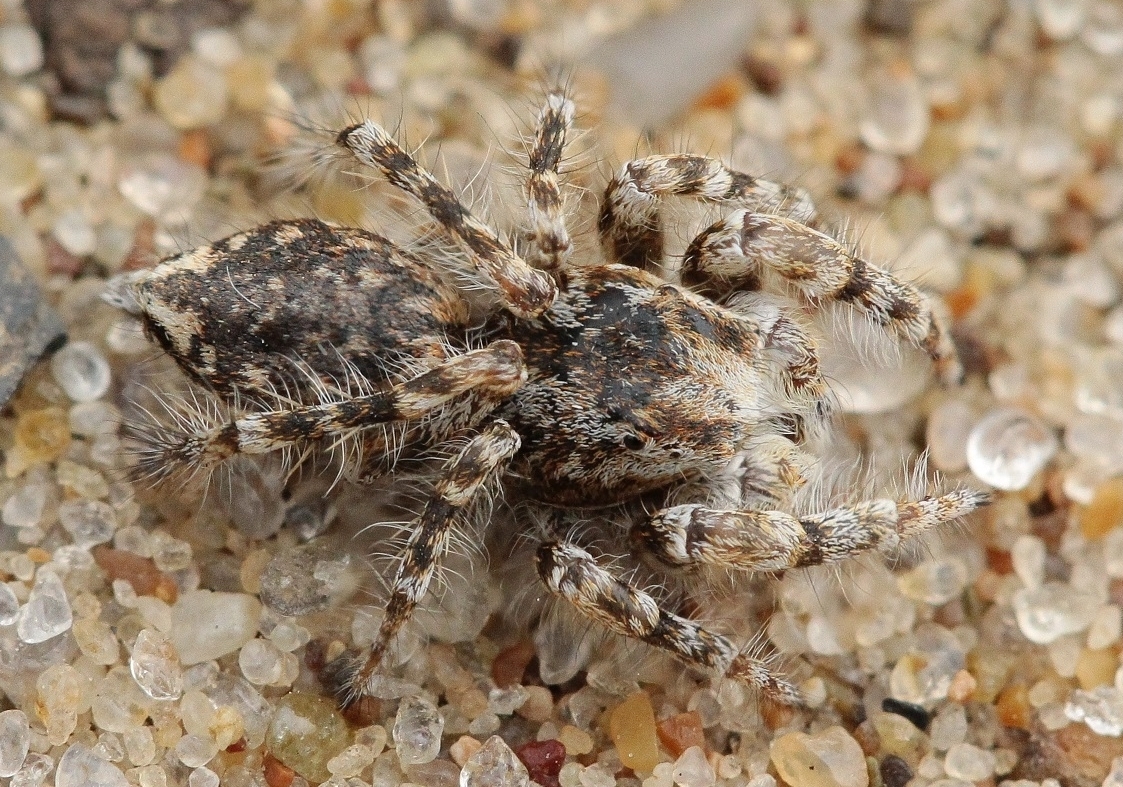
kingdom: Animalia
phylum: Arthropoda
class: Arachnida
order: Araneae
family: Salticidae
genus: Yllenus
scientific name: Yllenus arenarius
